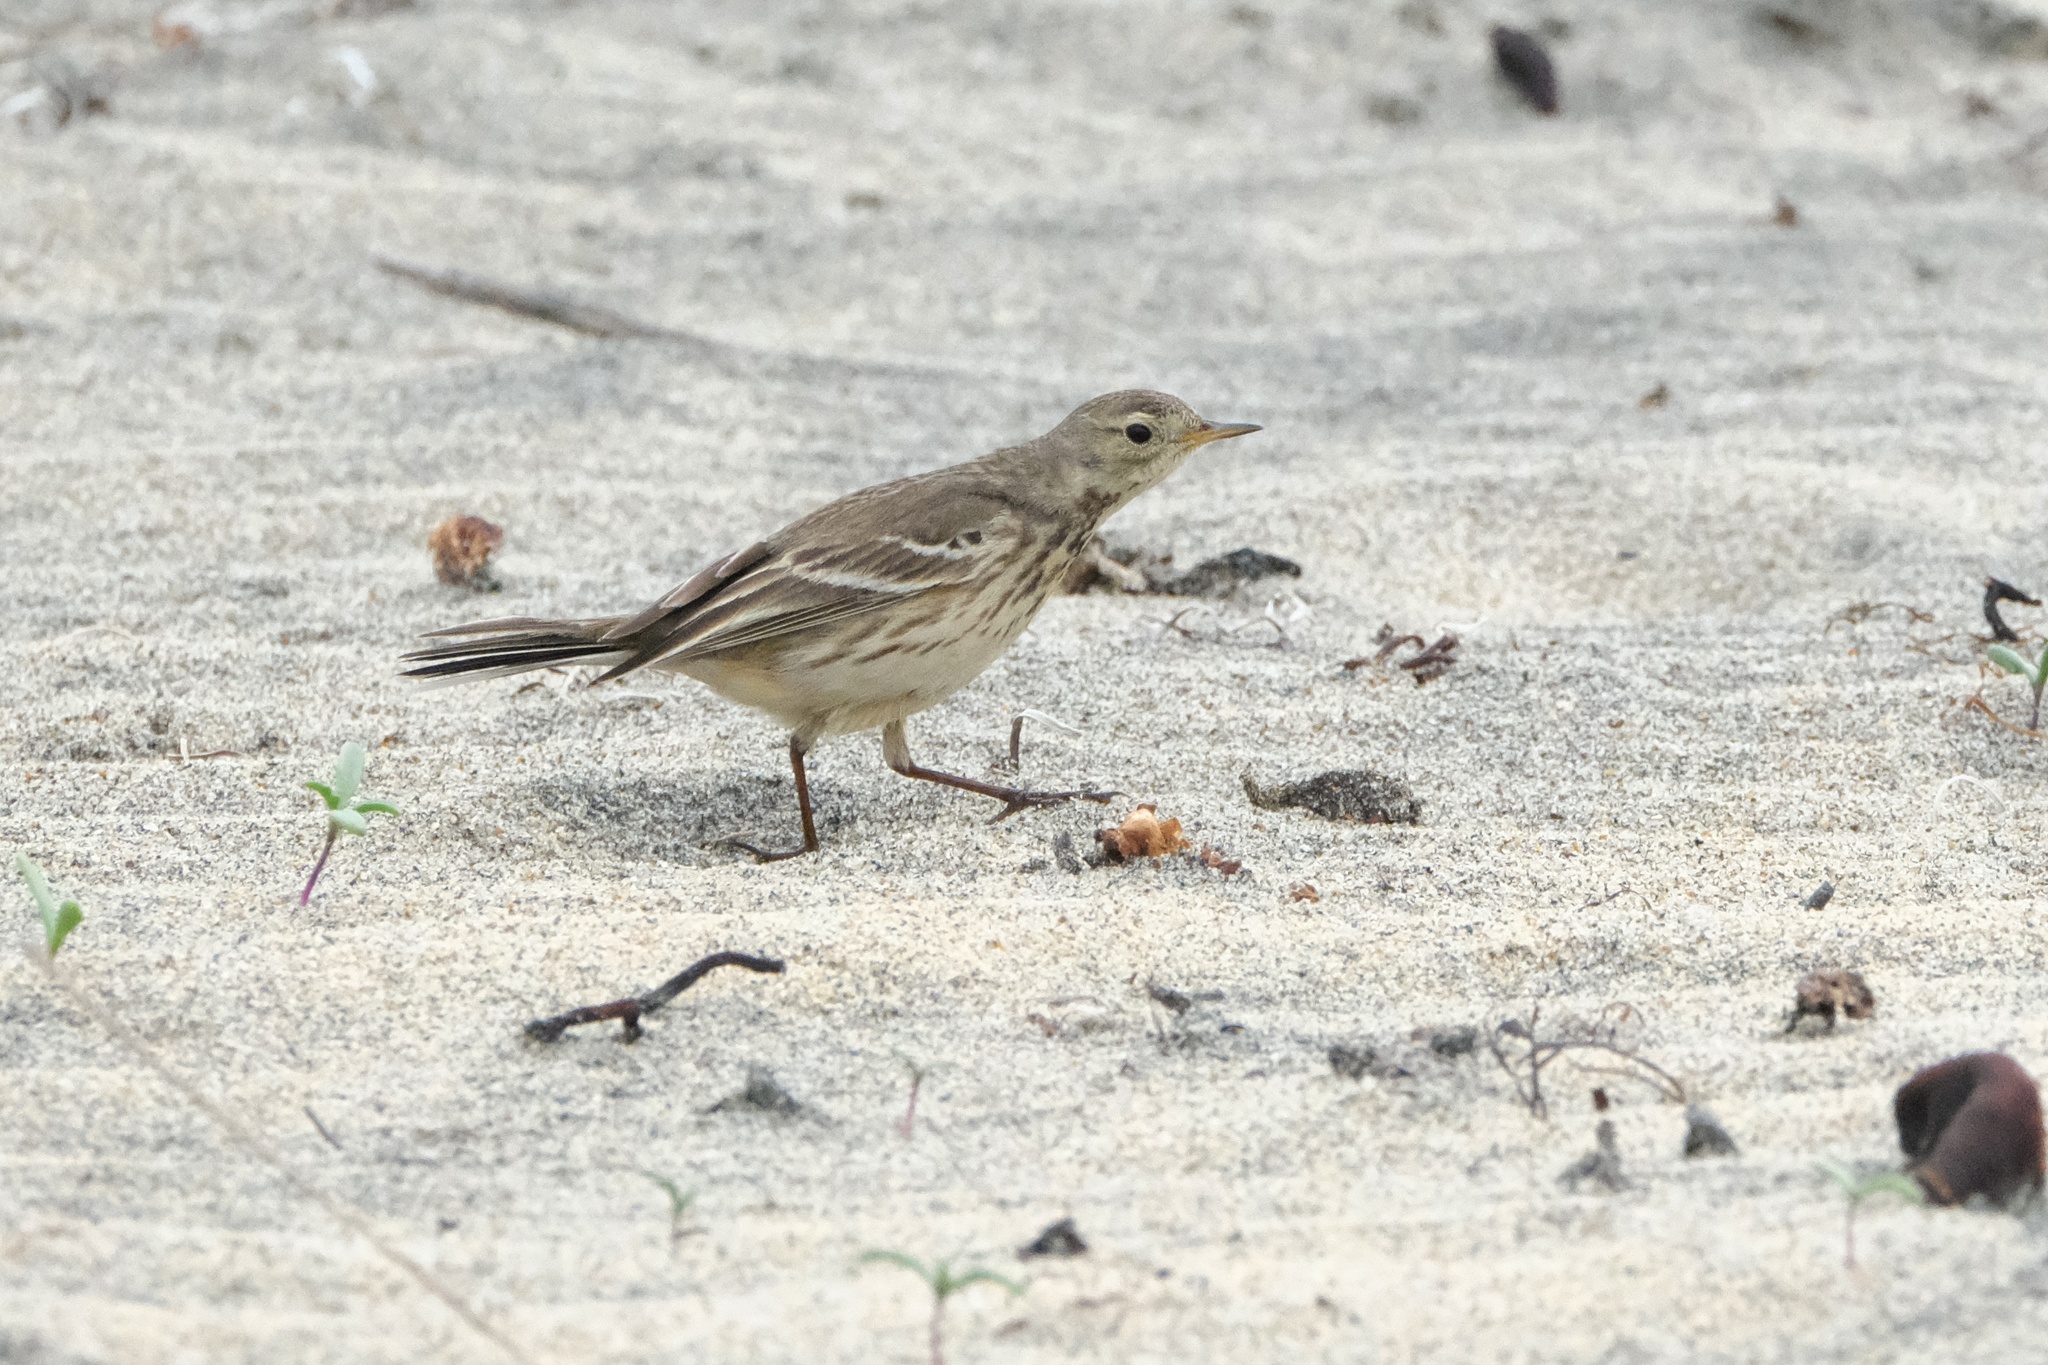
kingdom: Animalia
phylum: Chordata
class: Aves
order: Passeriformes
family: Motacillidae
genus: Anthus
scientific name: Anthus rubescens
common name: Buff-bellied pipit
